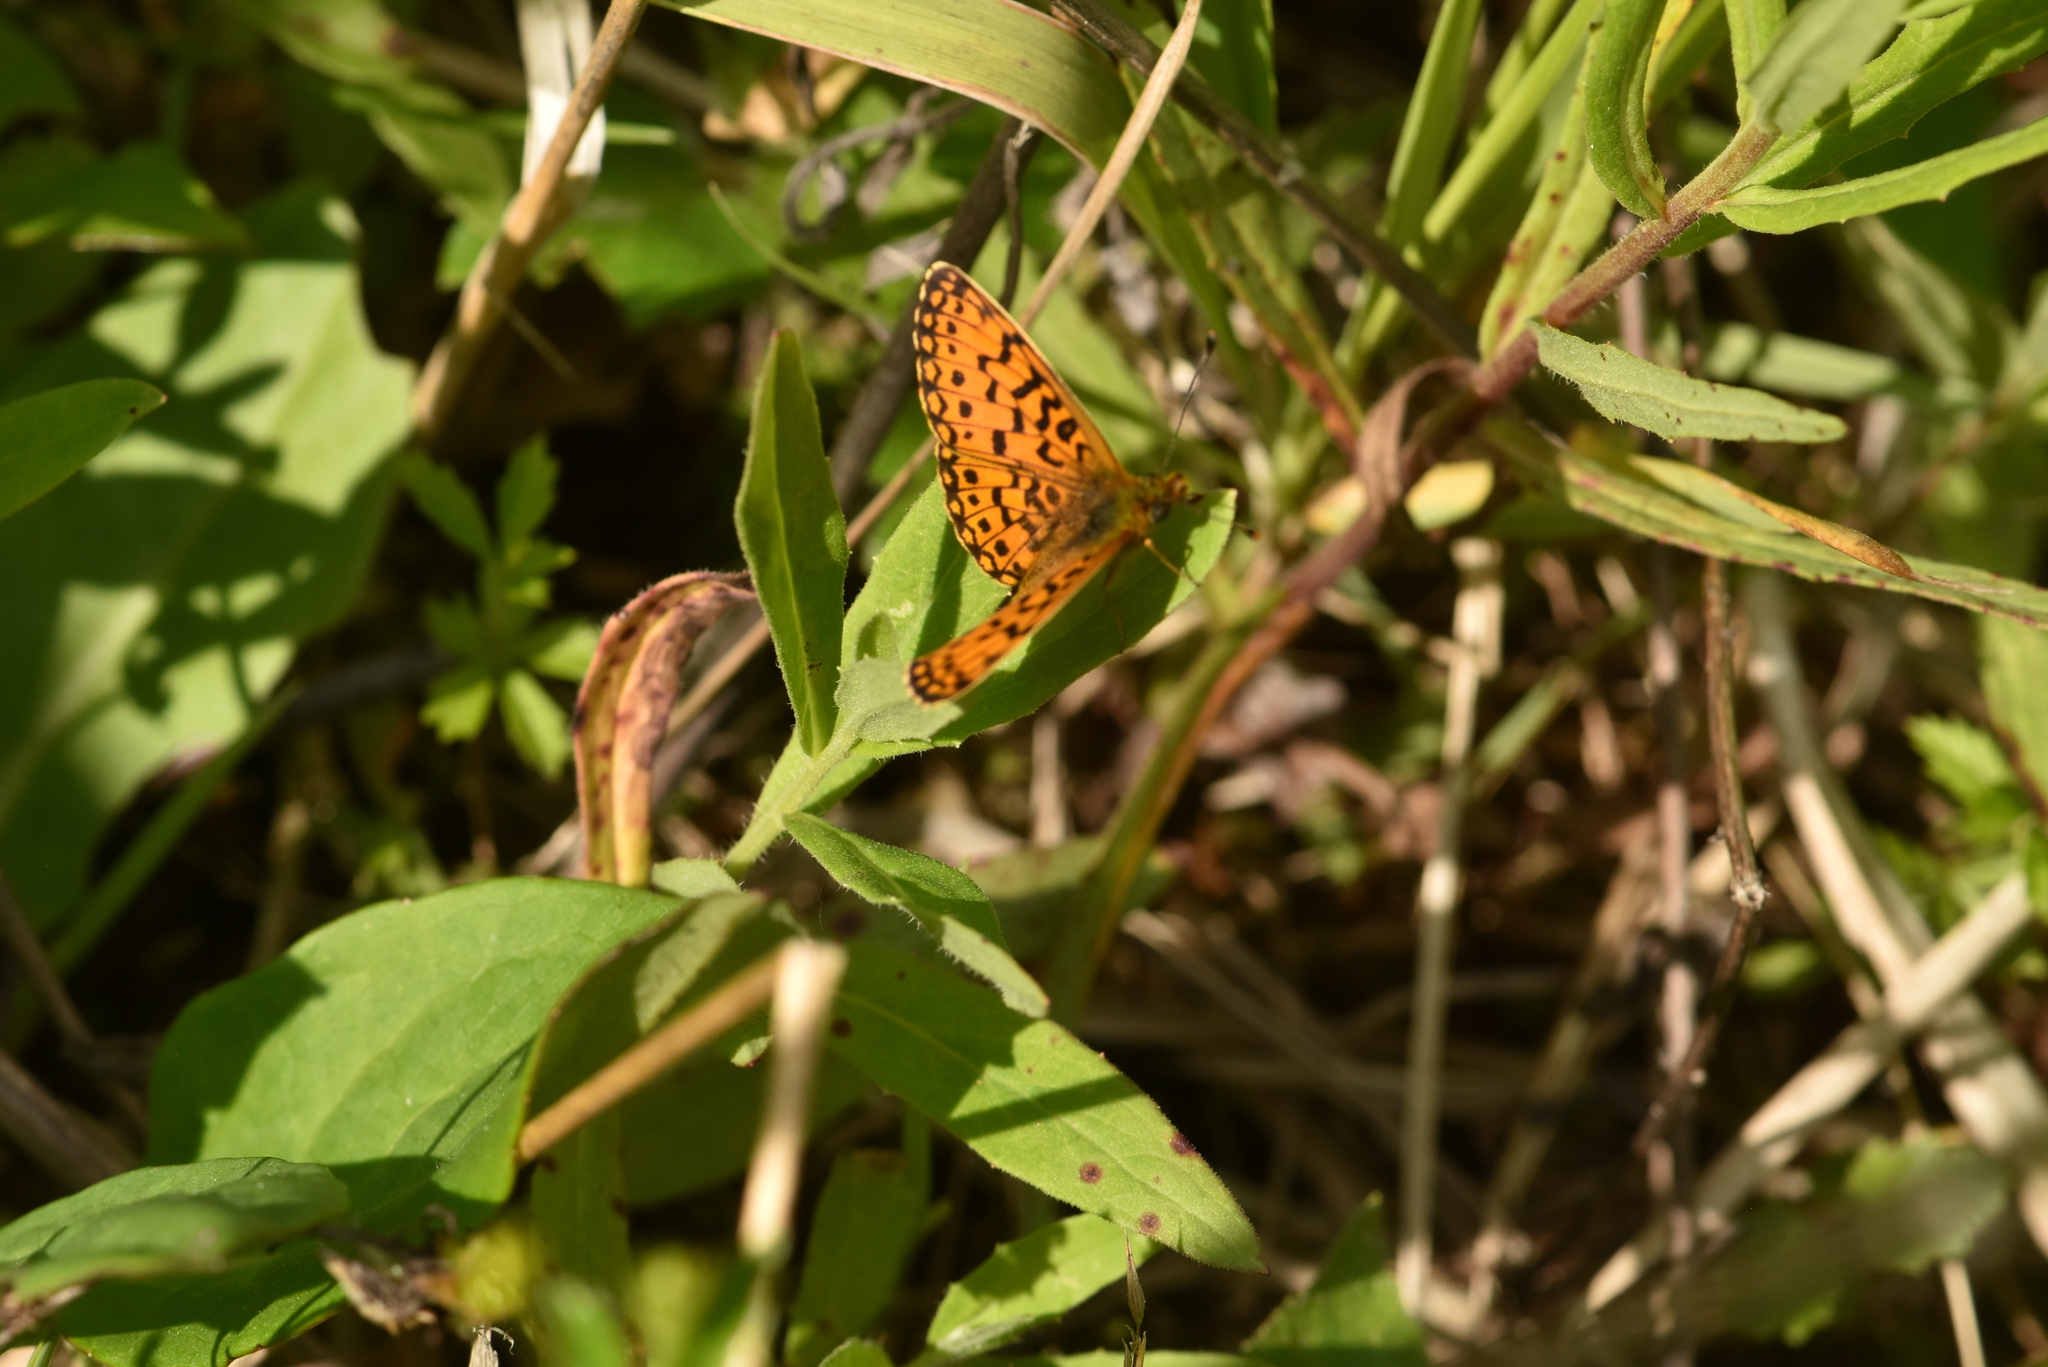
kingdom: Animalia
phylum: Arthropoda
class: Insecta
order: Lepidoptera
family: Nymphalidae
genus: Boloria
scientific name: Boloria selene
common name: Small pearl-bordered fritillary
